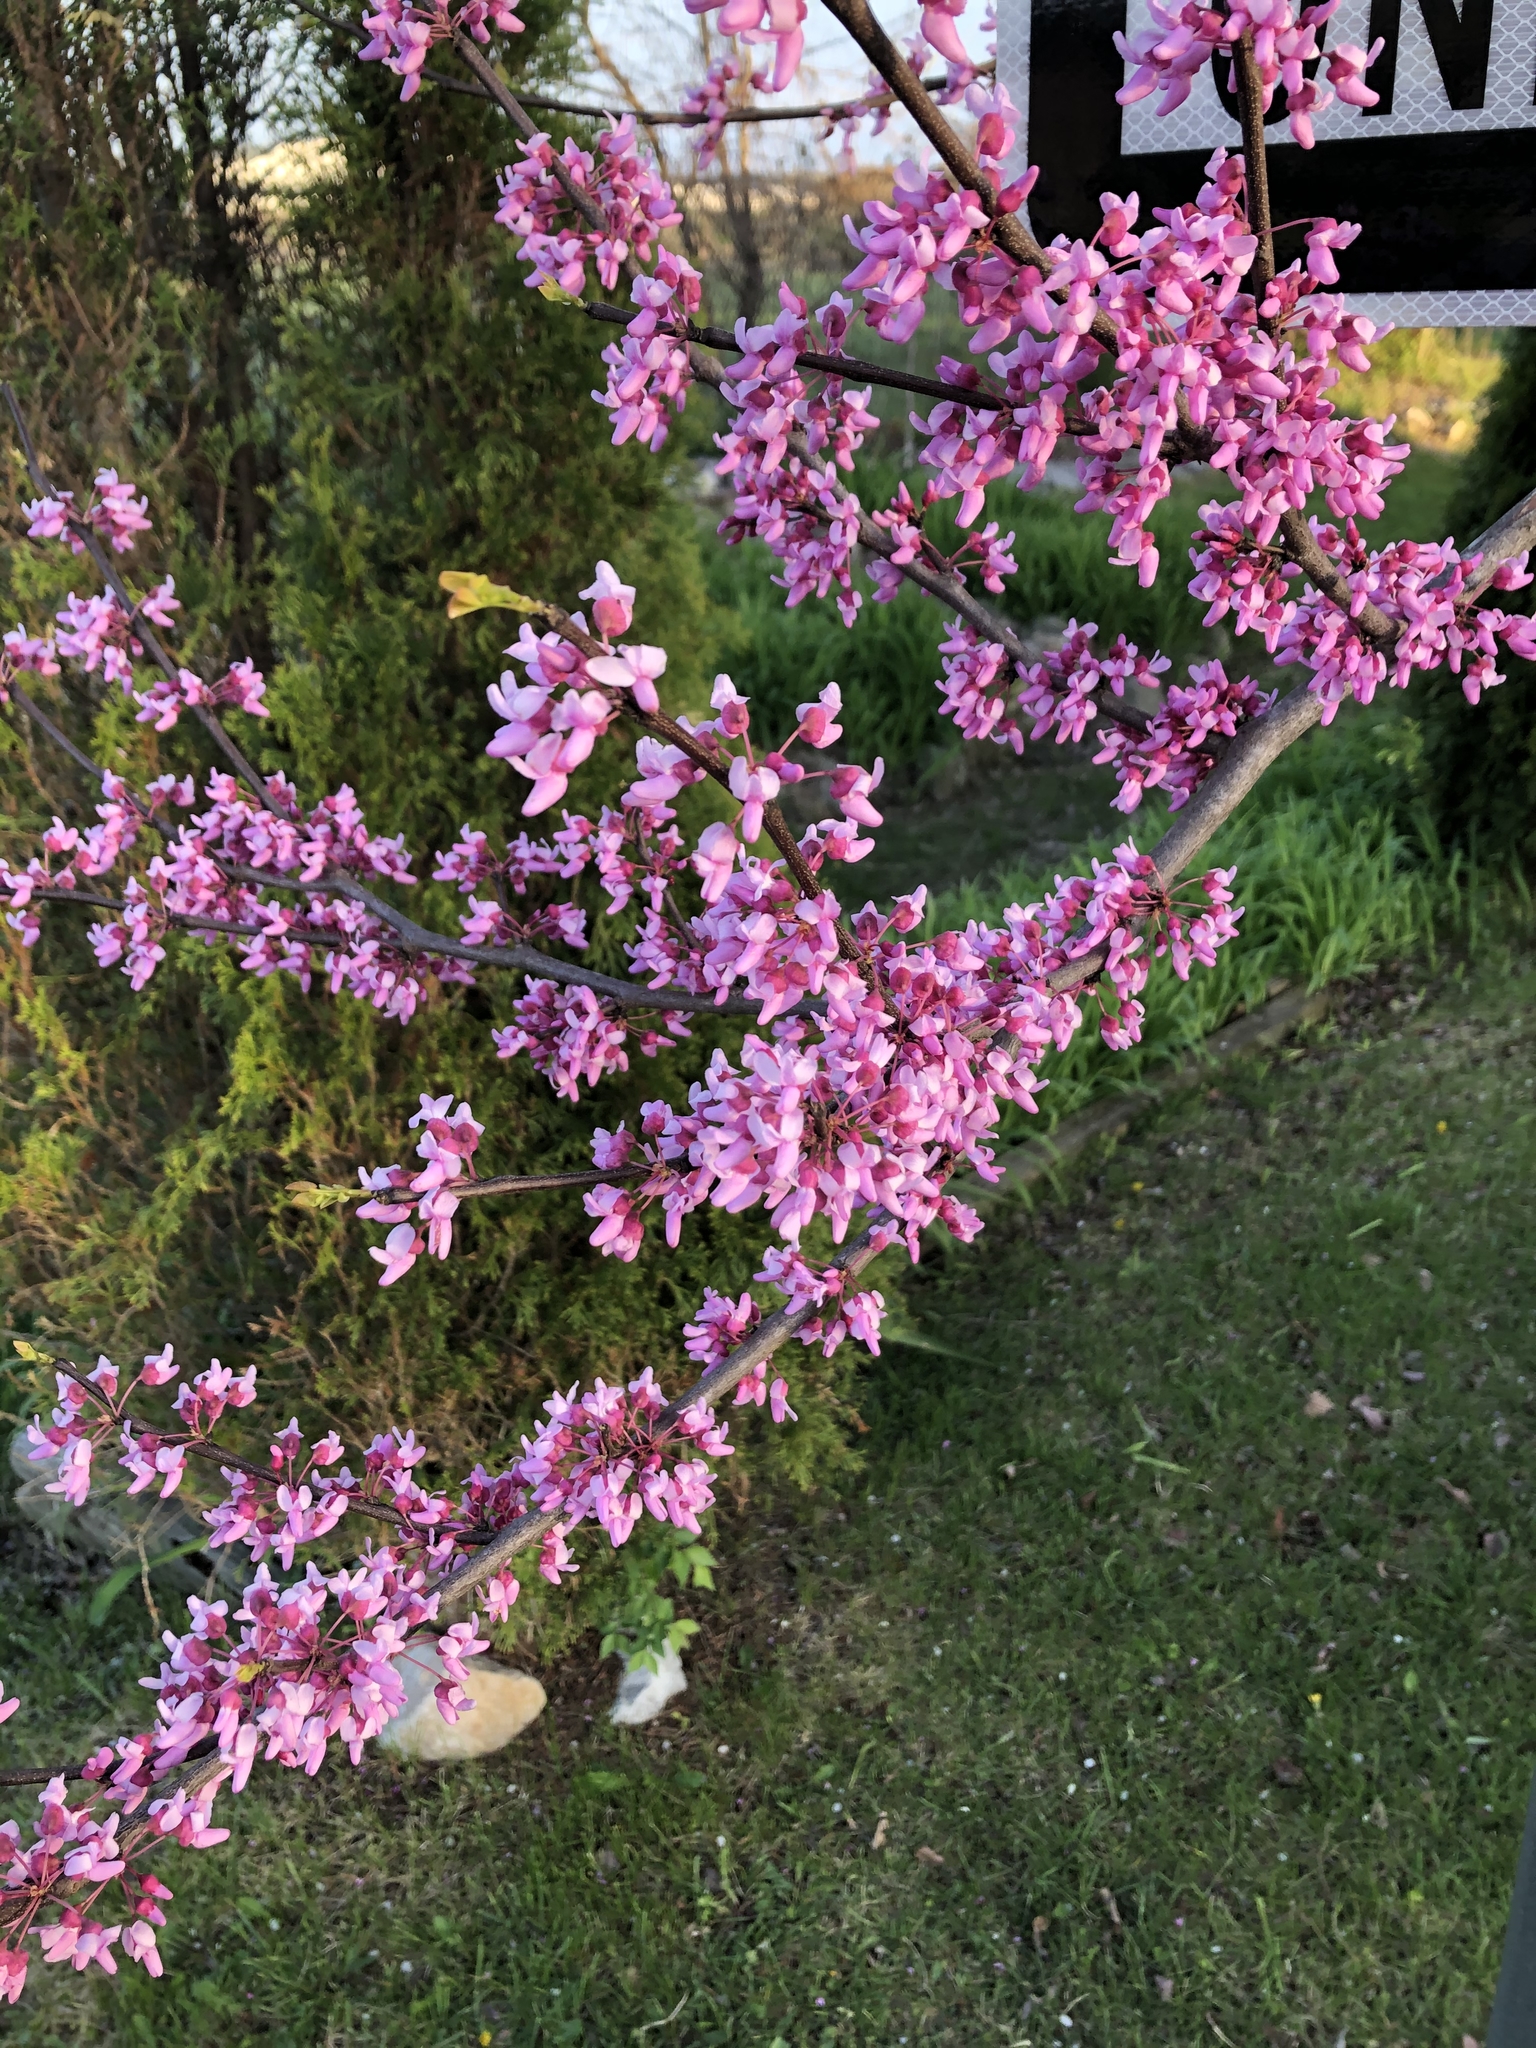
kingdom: Plantae
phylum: Tracheophyta
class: Magnoliopsida
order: Fabales
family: Fabaceae
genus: Cercis
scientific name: Cercis canadensis
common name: Eastern redbud
